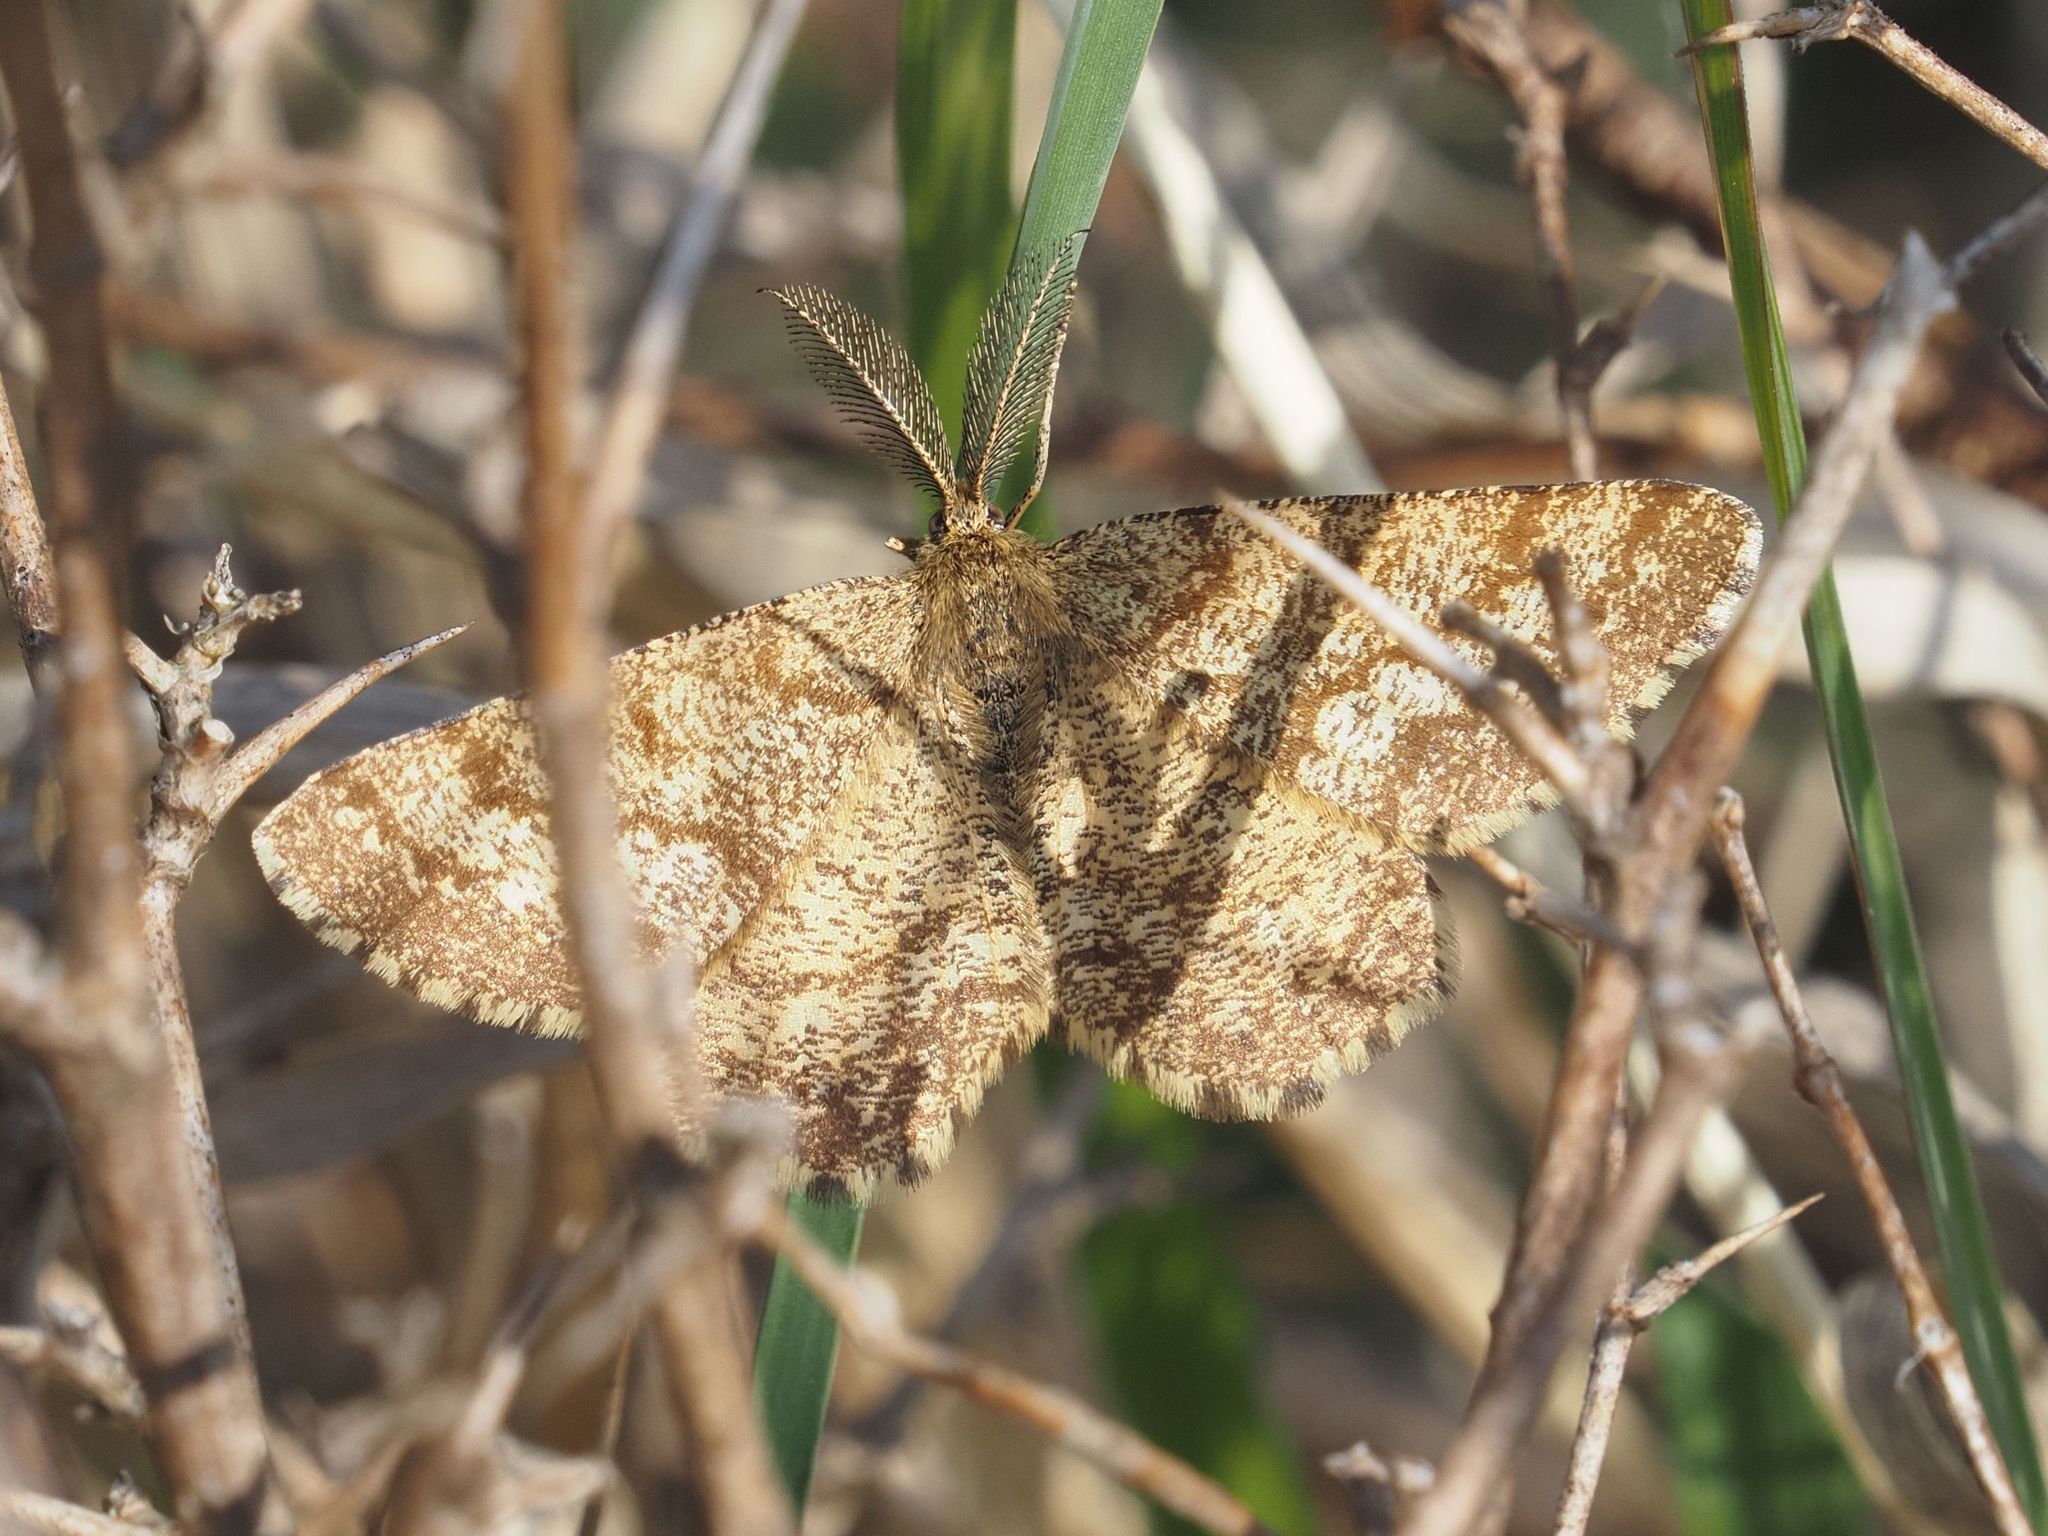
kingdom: Animalia
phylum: Arthropoda
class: Insecta
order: Lepidoptera
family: Geometridae
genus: Ematurga
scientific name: Ematurga atomaria
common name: Common heath
